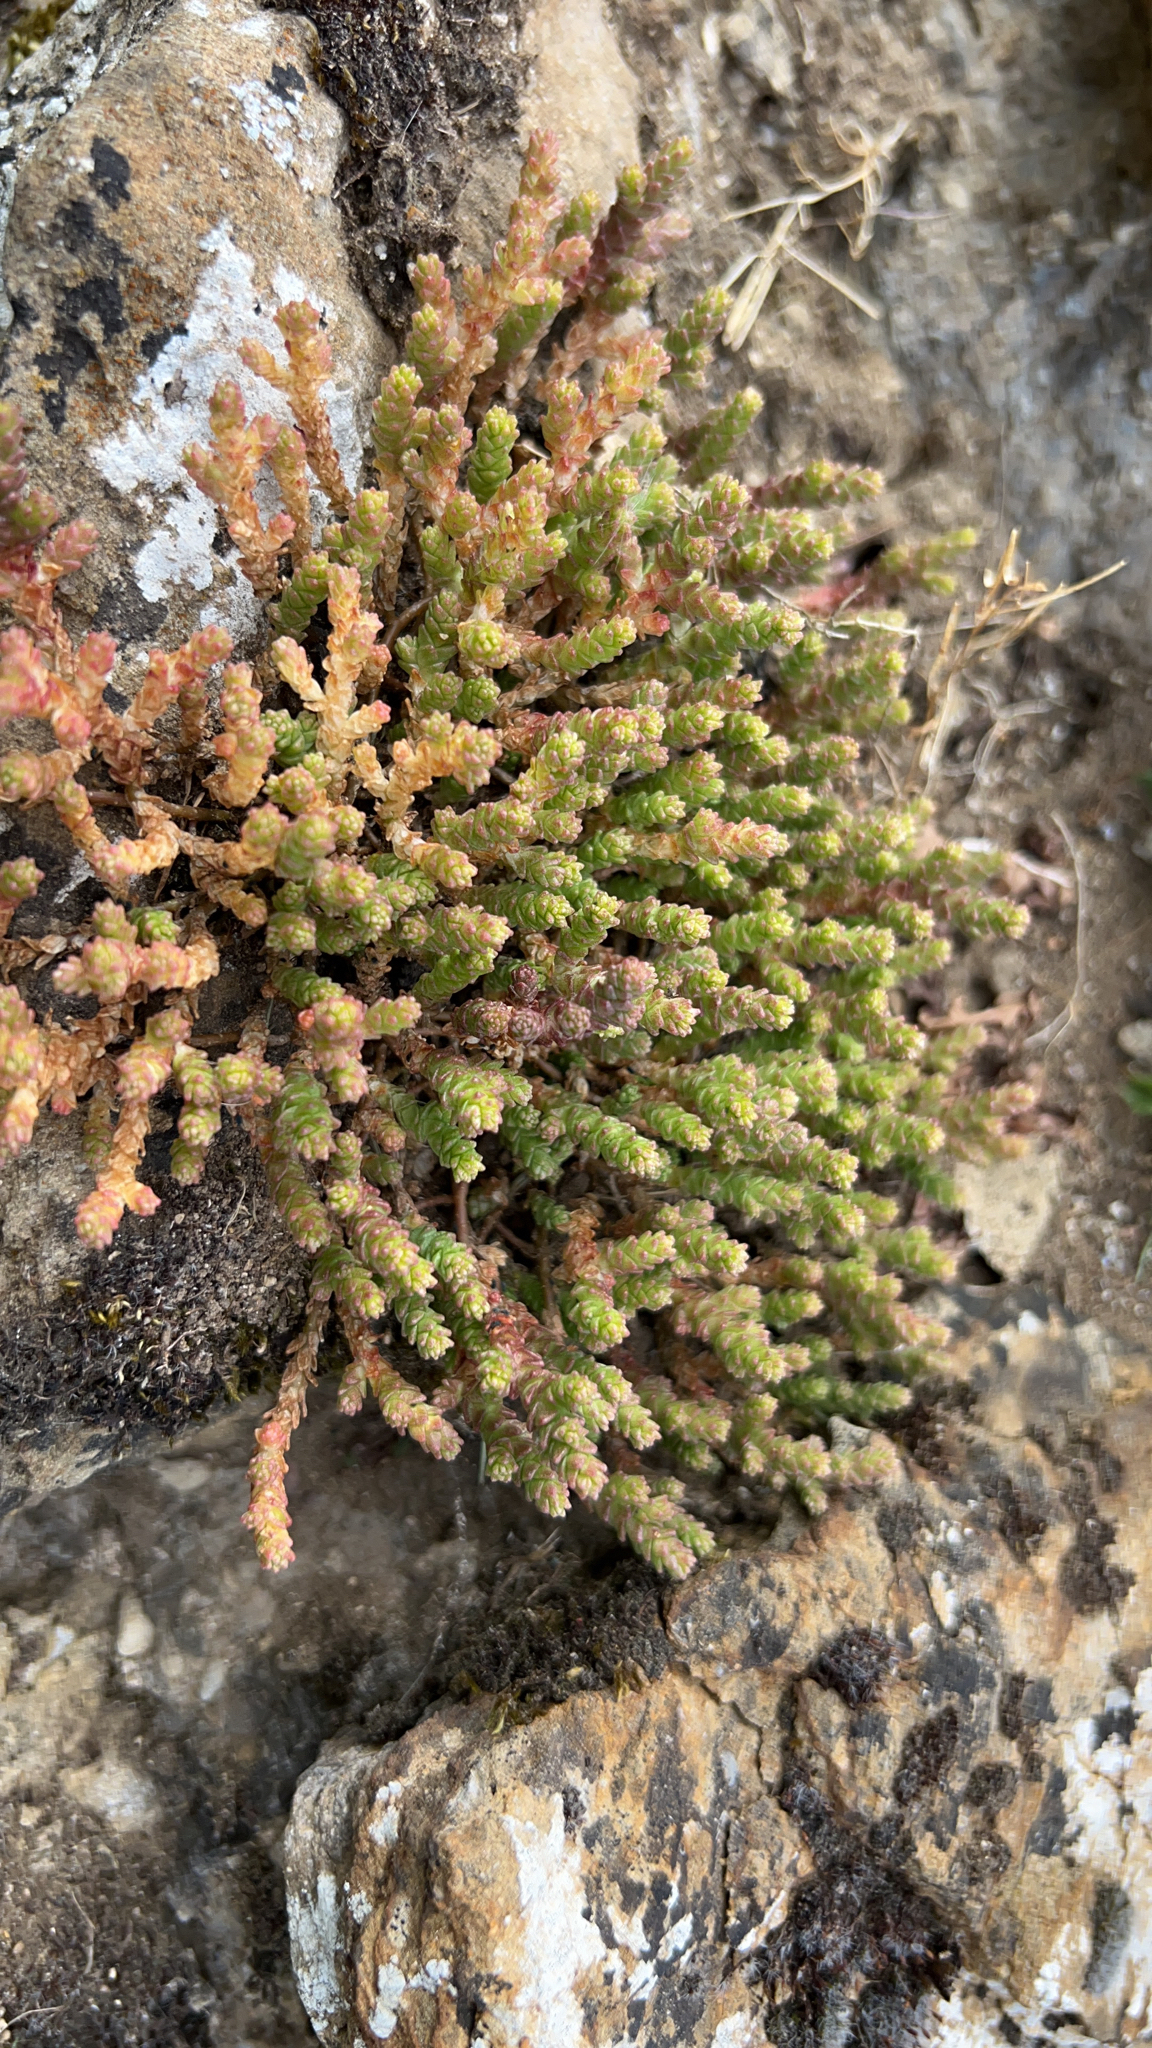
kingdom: Plantae
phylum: Tracheophyta
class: Magnoliopsida
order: Saxifragales
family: Crassulaceae
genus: Sedum
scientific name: Sedum acre
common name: Biting stonecrop
